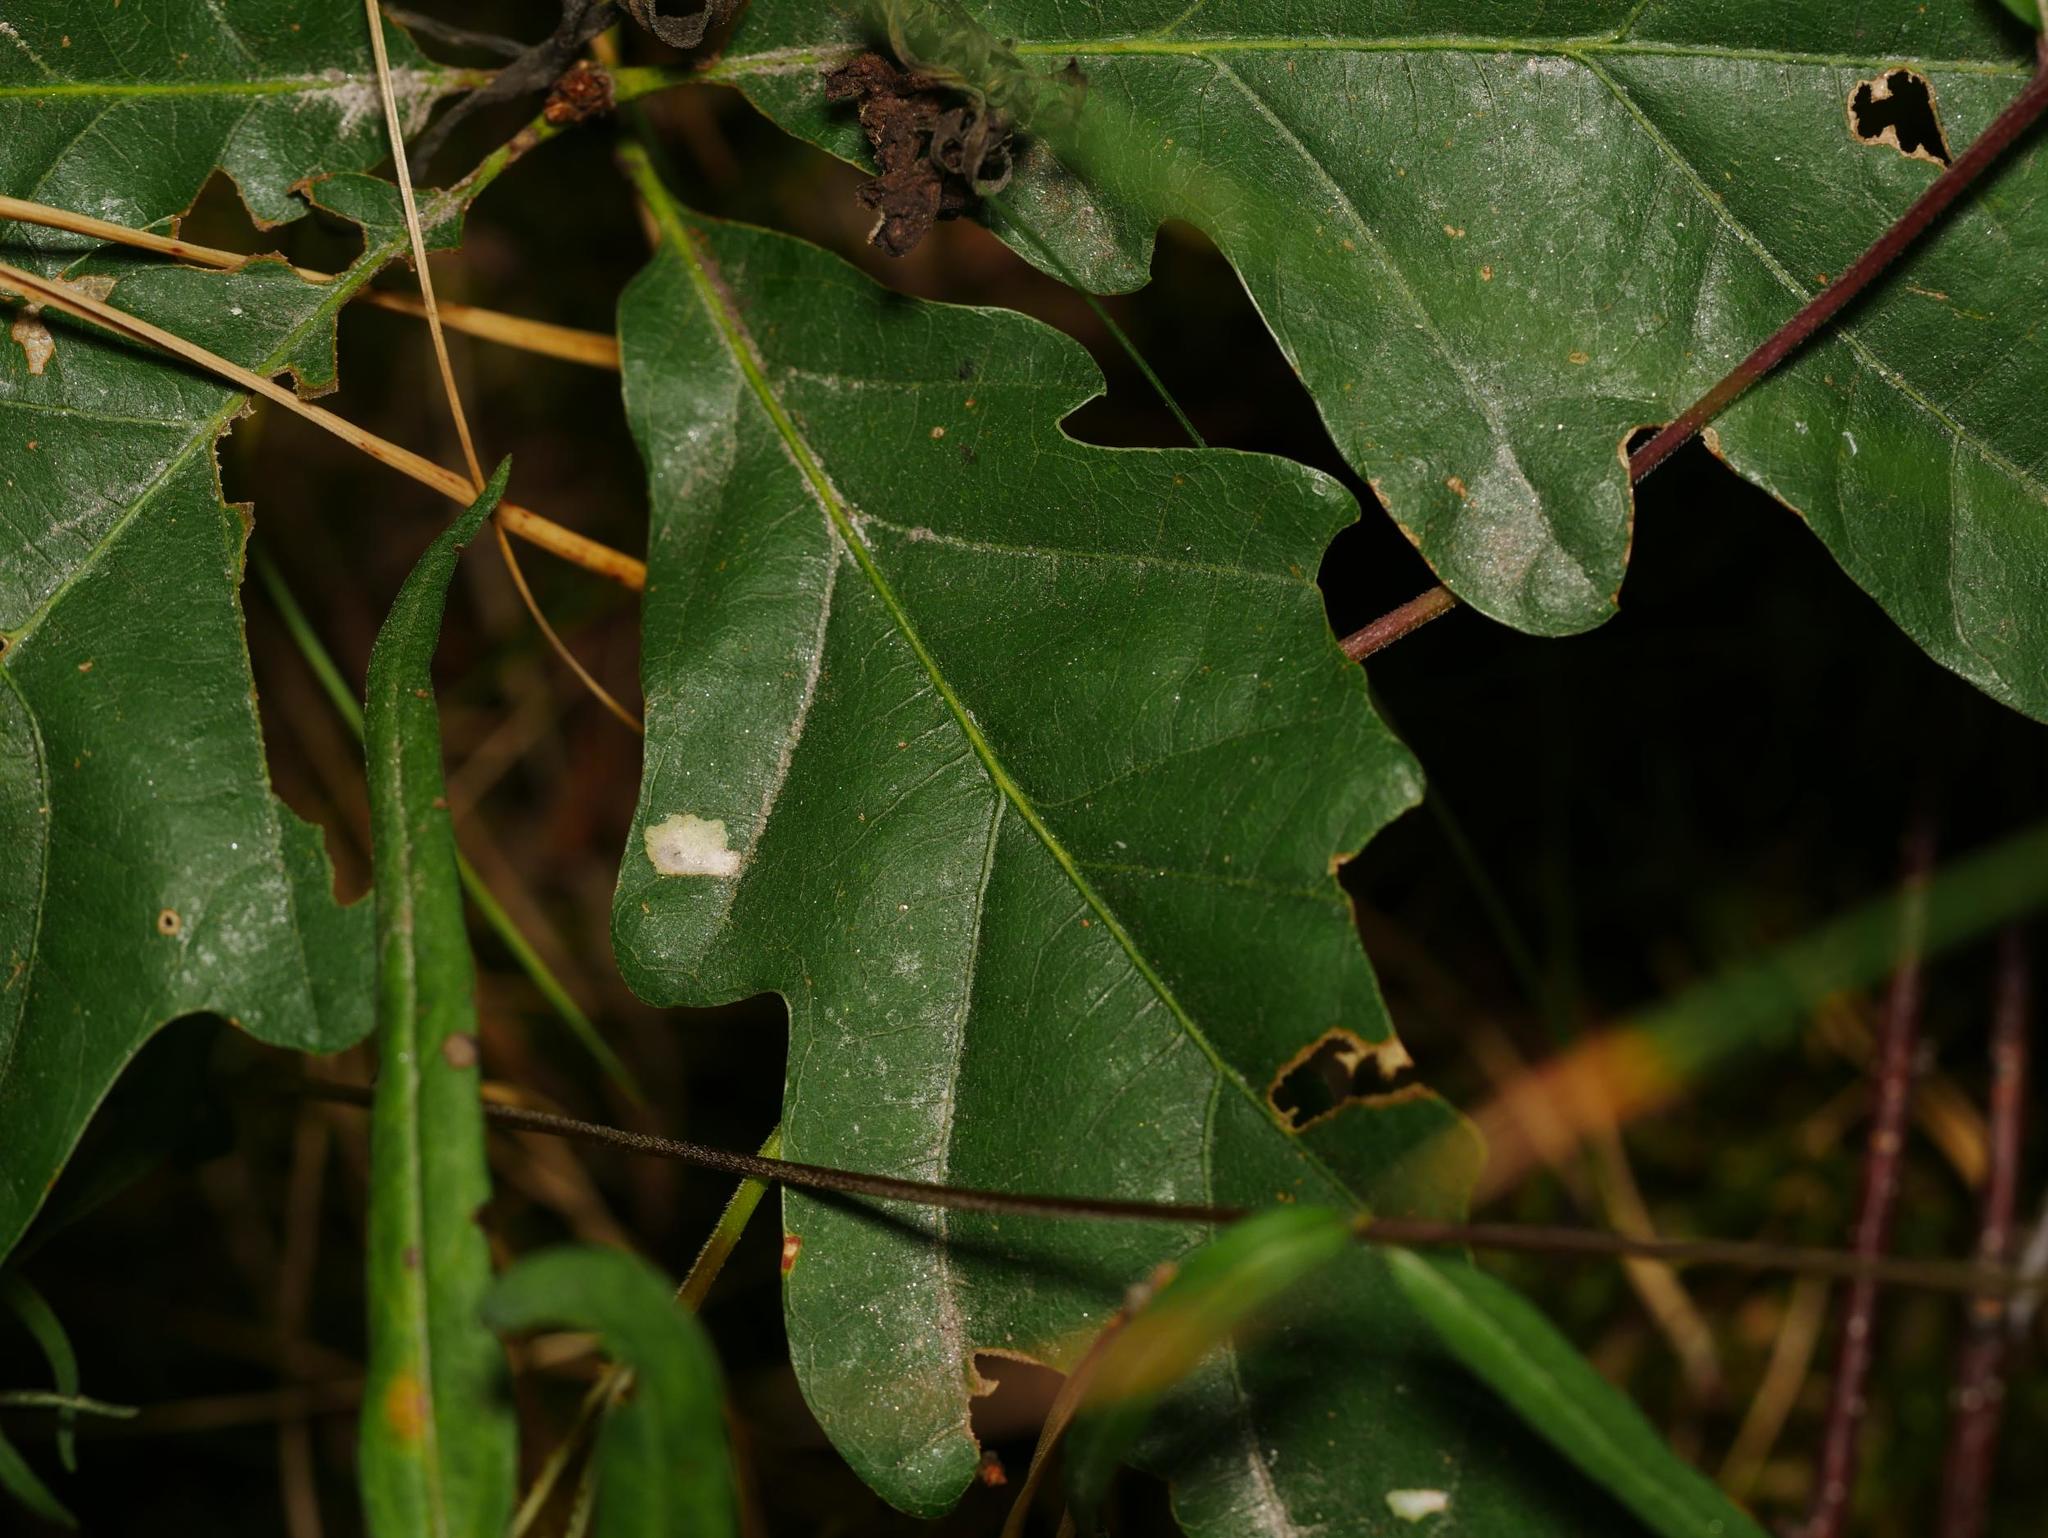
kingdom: Plantae
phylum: Tracheophyta
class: Magnoliopsida
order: Fagales
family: Fagaceae
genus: Quercus
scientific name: Quercus robur
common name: Pedunculate oak
